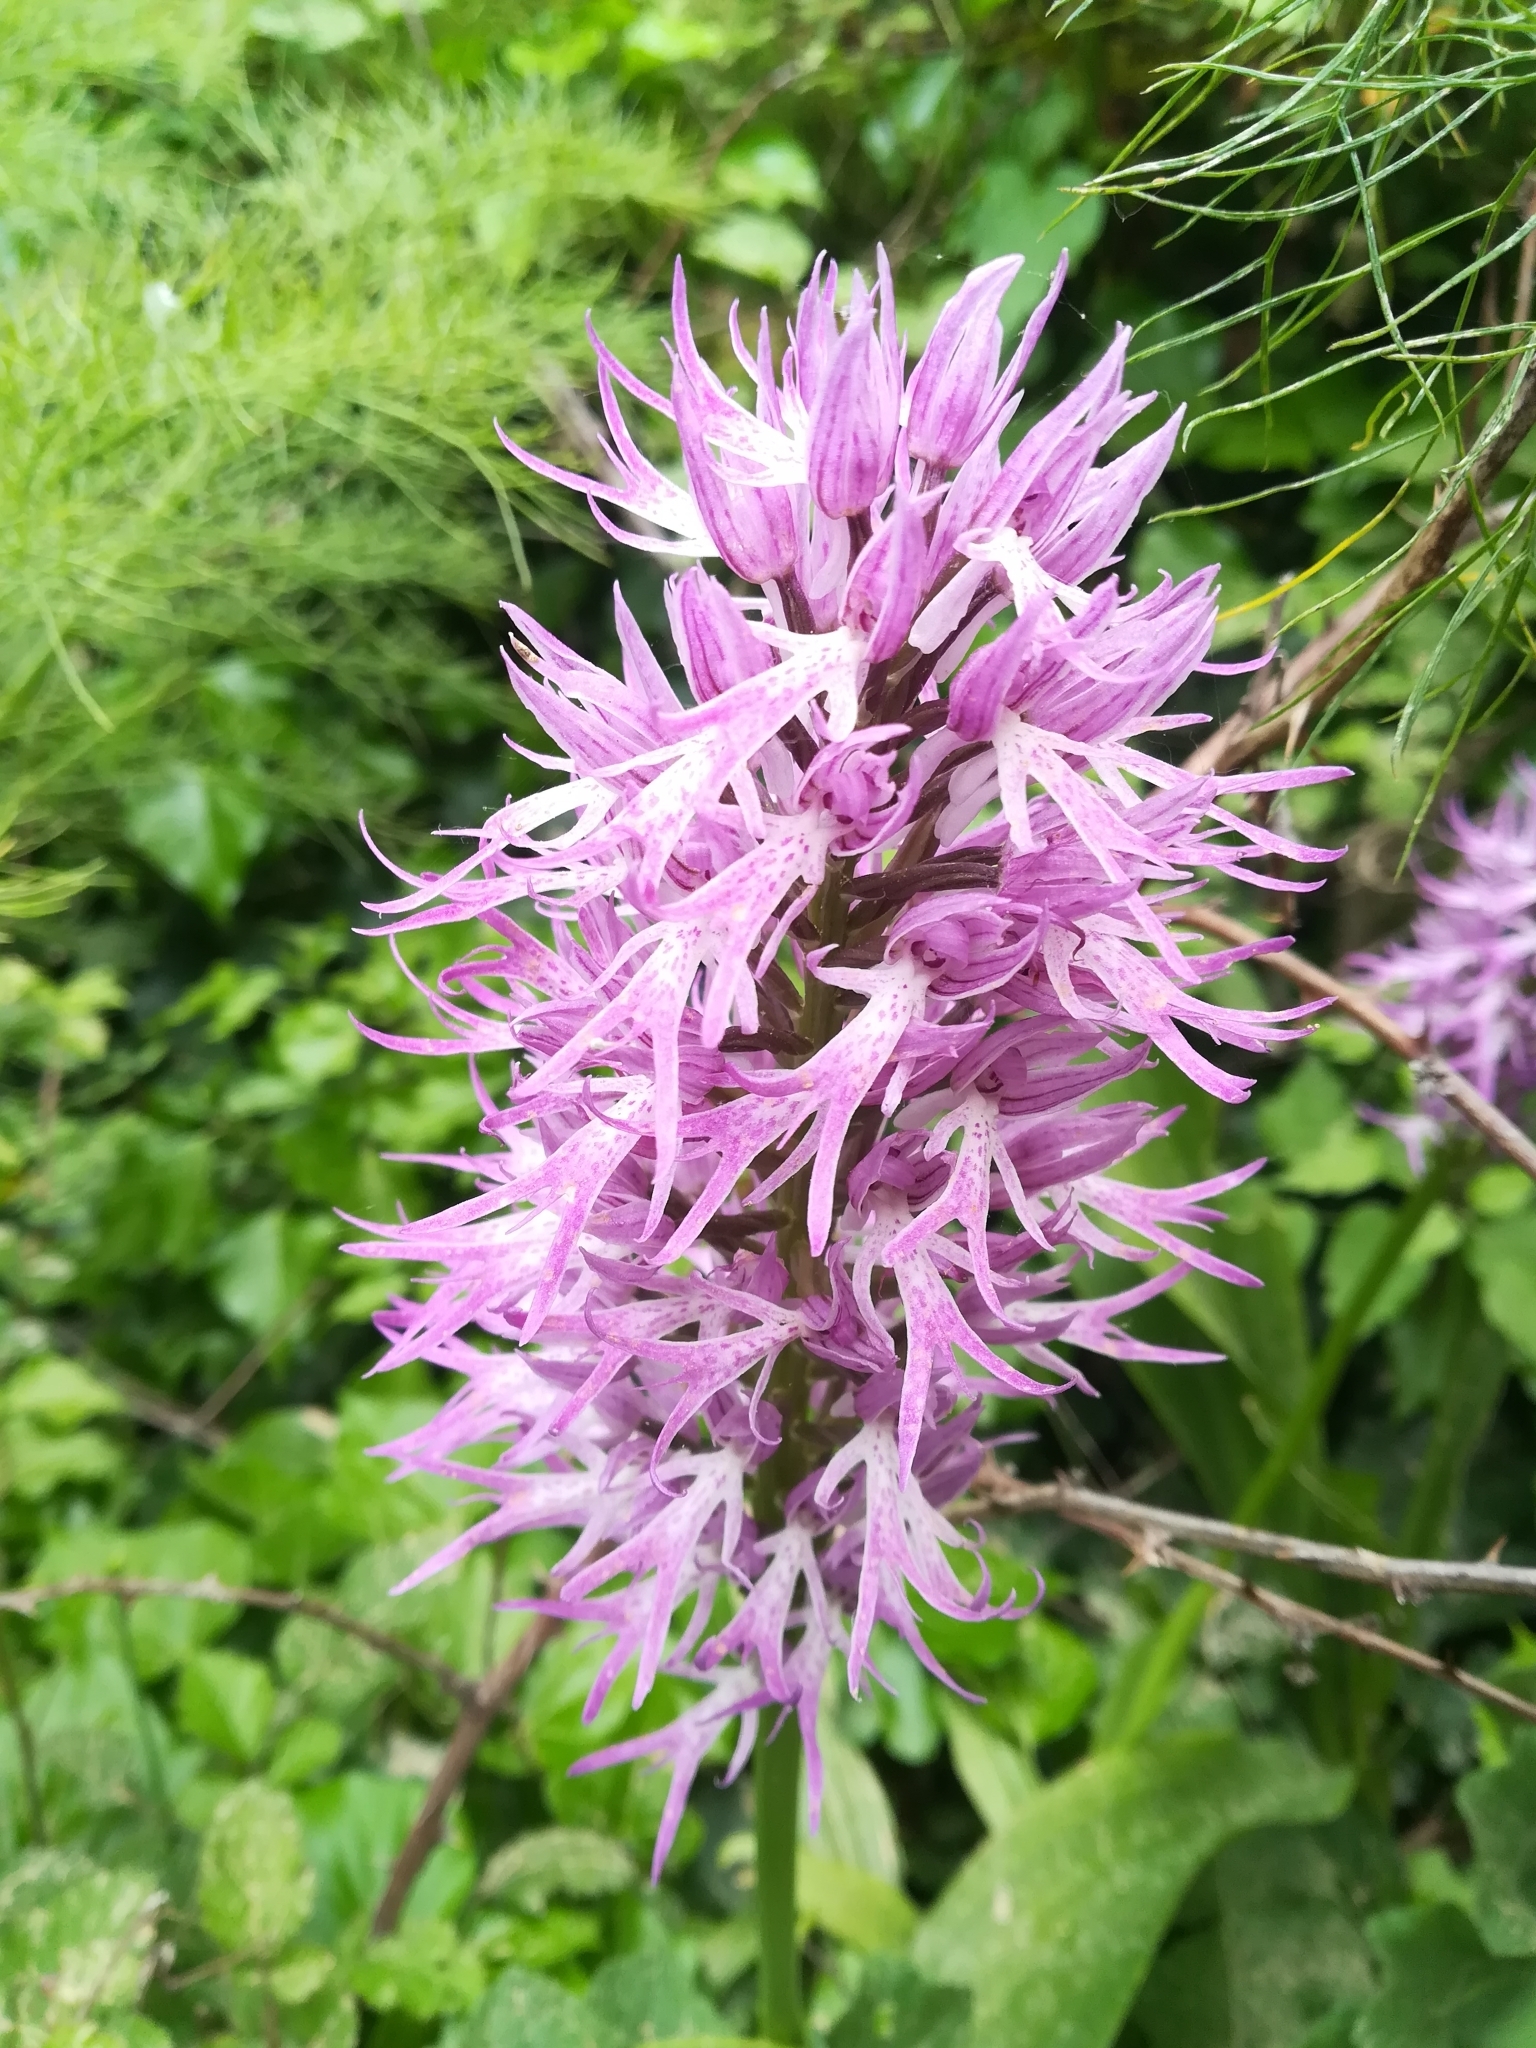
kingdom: Plantae
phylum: Tracheophyta
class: Liliopsida
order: Asparagales
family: Orchidaceae
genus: Orchis
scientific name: Orchis italica
